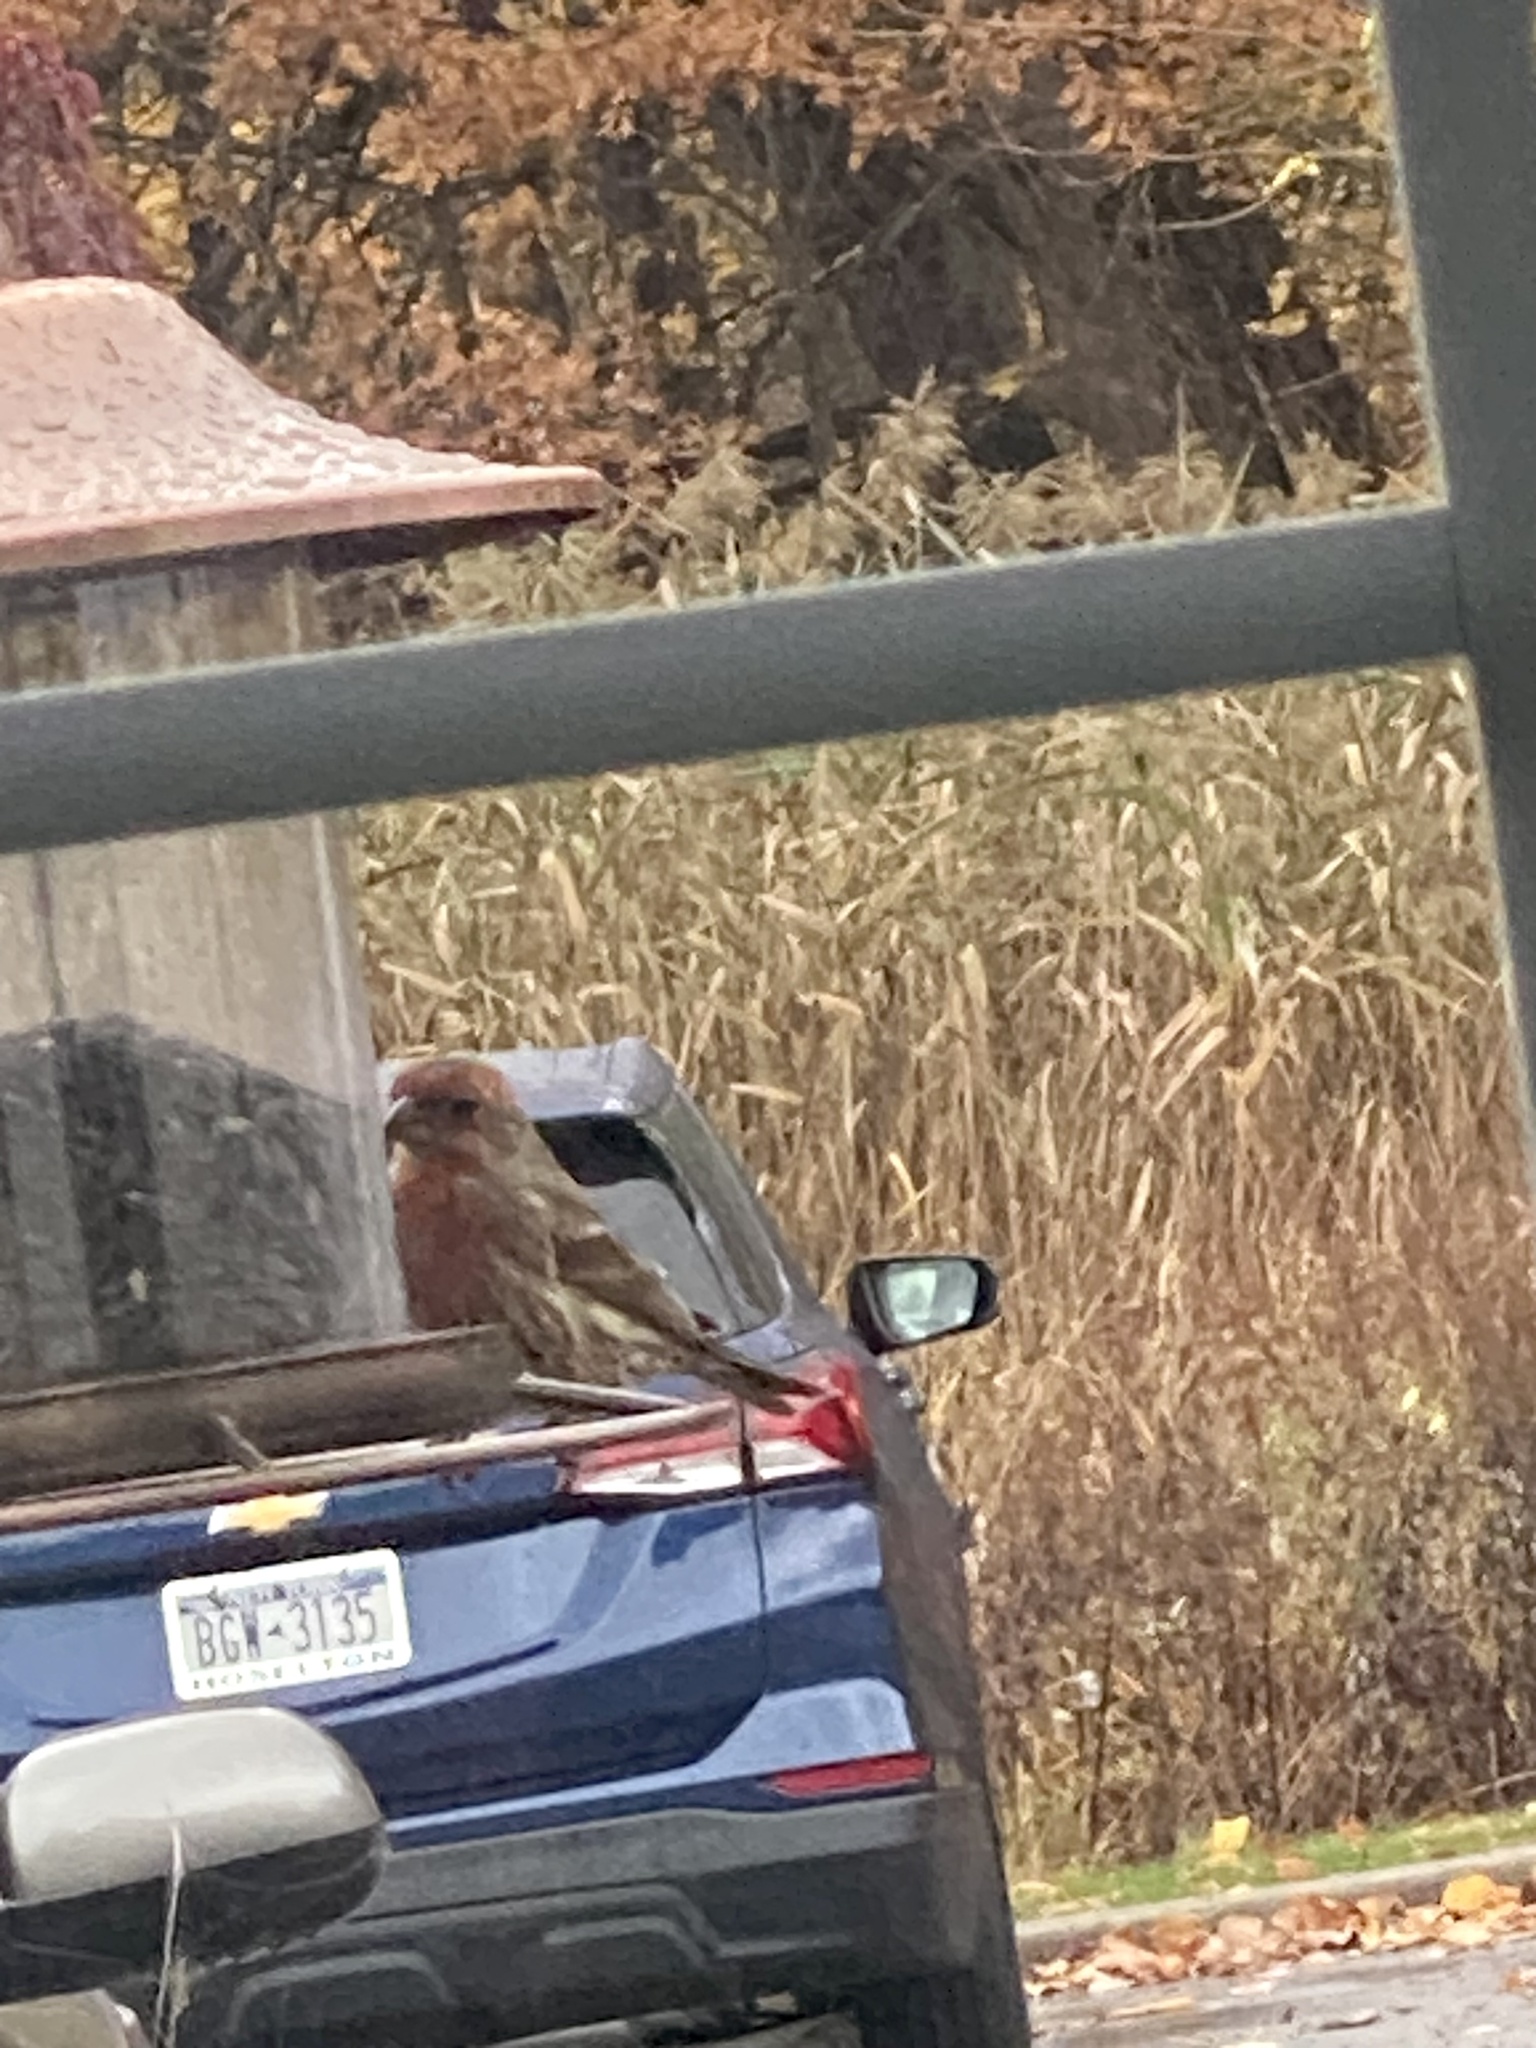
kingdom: Animalia
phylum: Chordata
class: Aves
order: Passeriformes
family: Fringillidae
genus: Haemorhous
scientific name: Haemorhous mexicanus
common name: House finch
